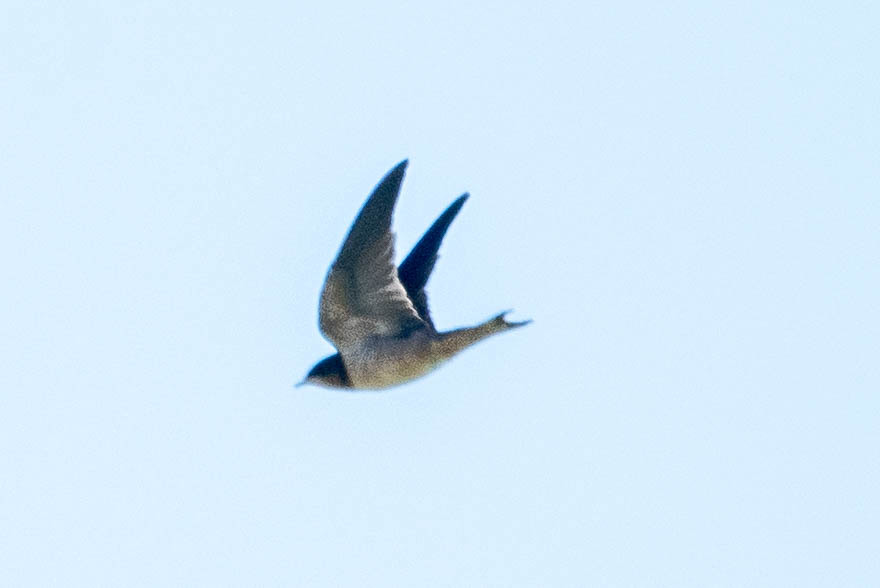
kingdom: Animalia
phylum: Chordata
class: Aves
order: Passeriformes
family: Hirundinidae
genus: Hirundo
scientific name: Hirundo rustica
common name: Barn swallow
